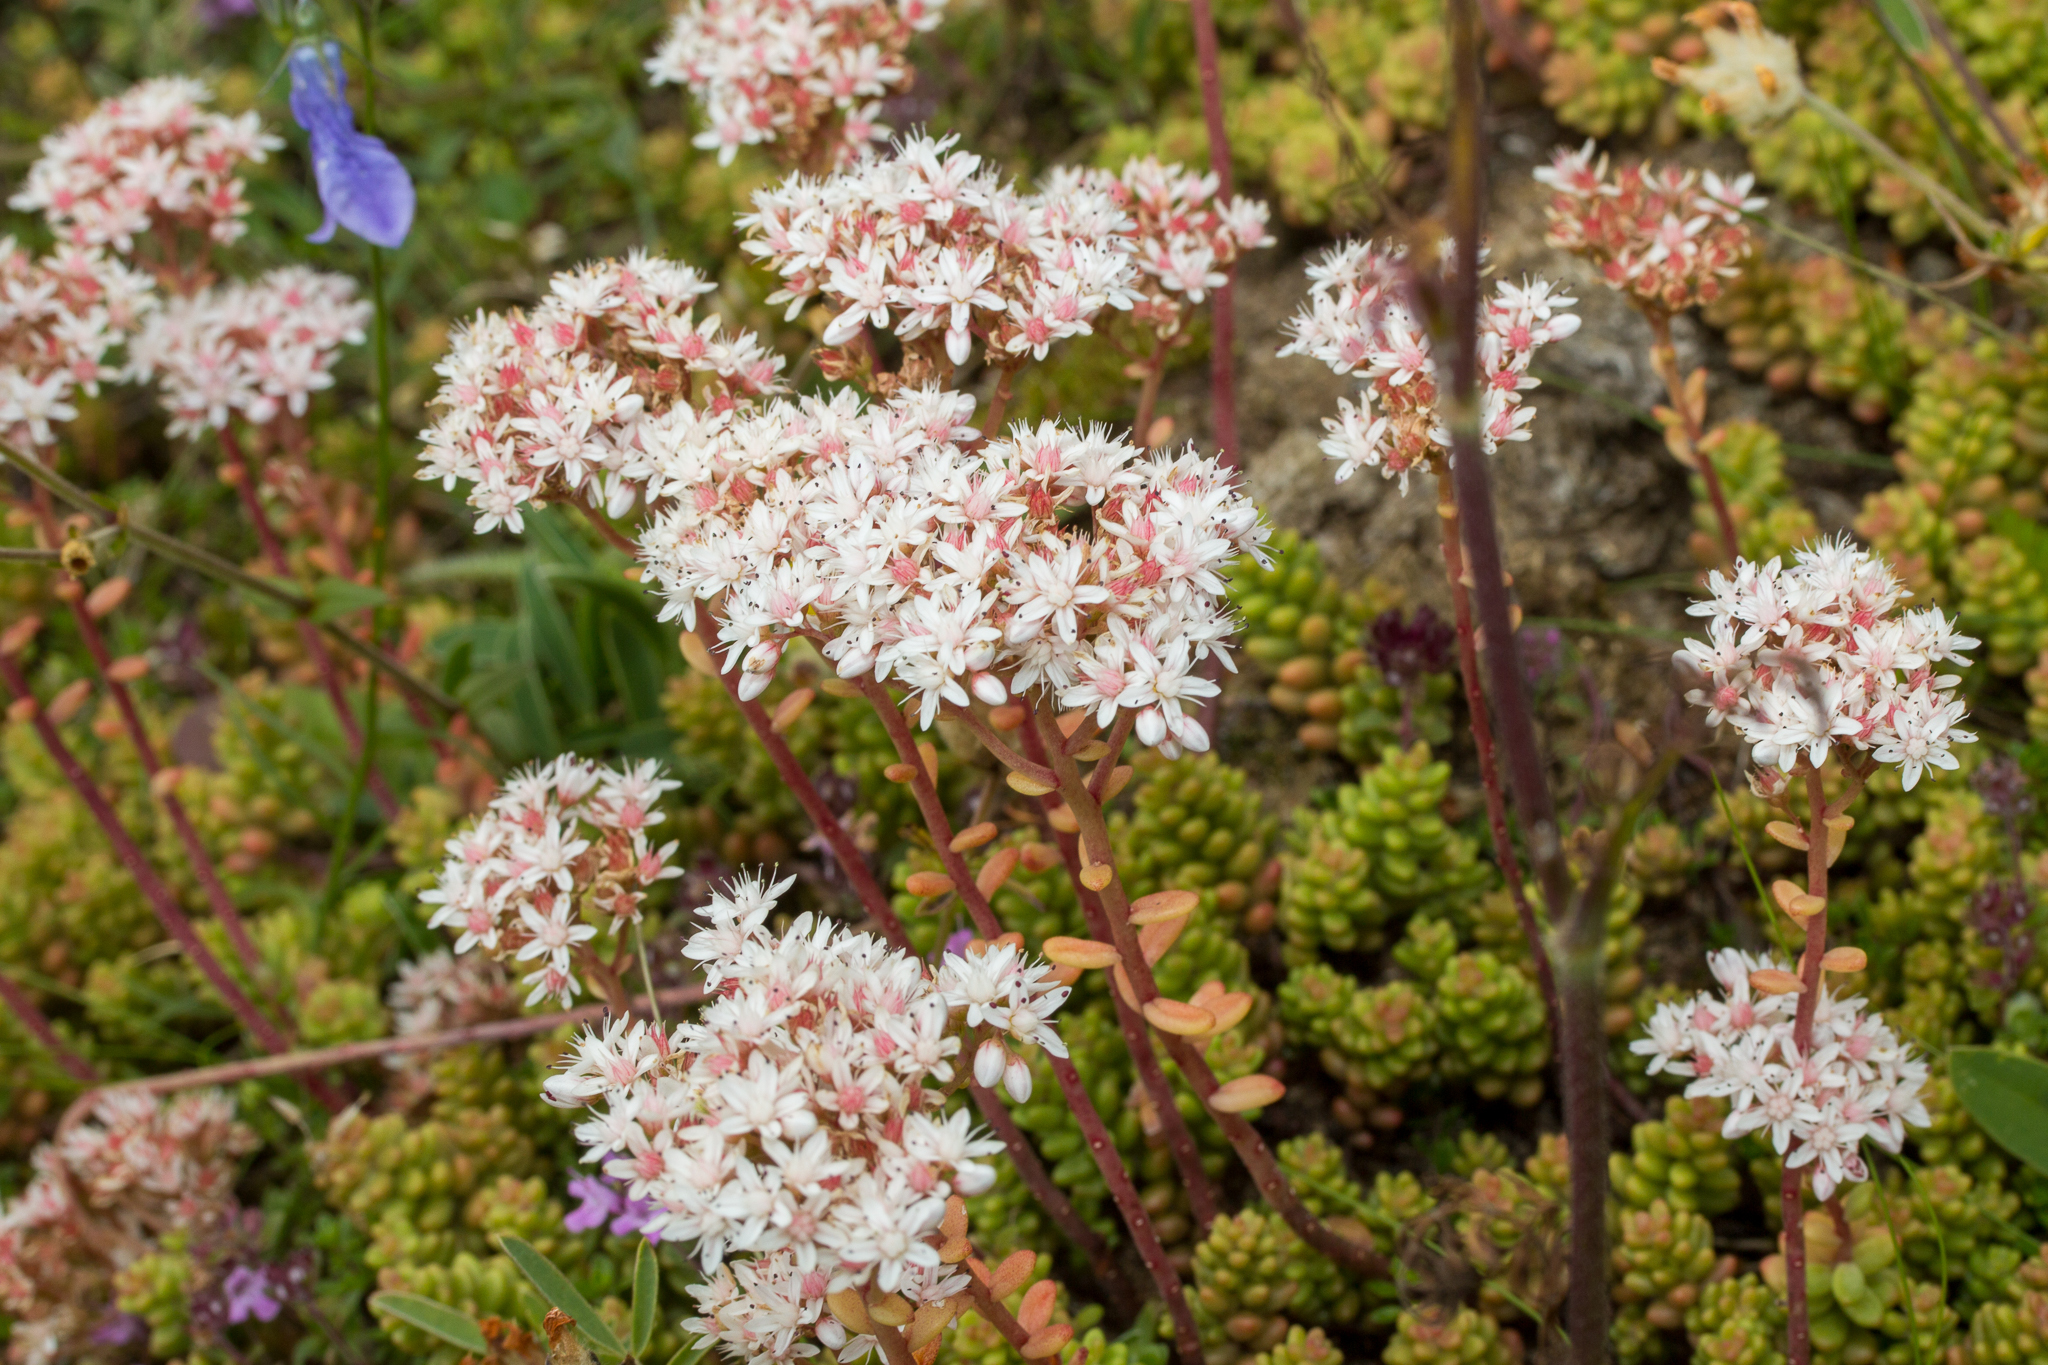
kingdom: Plantae
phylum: Tracheophyta
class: Magnoliopsida
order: Saxifragales
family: Crassulaceae
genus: Sedum
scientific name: Sedum album
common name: White stonecrop
